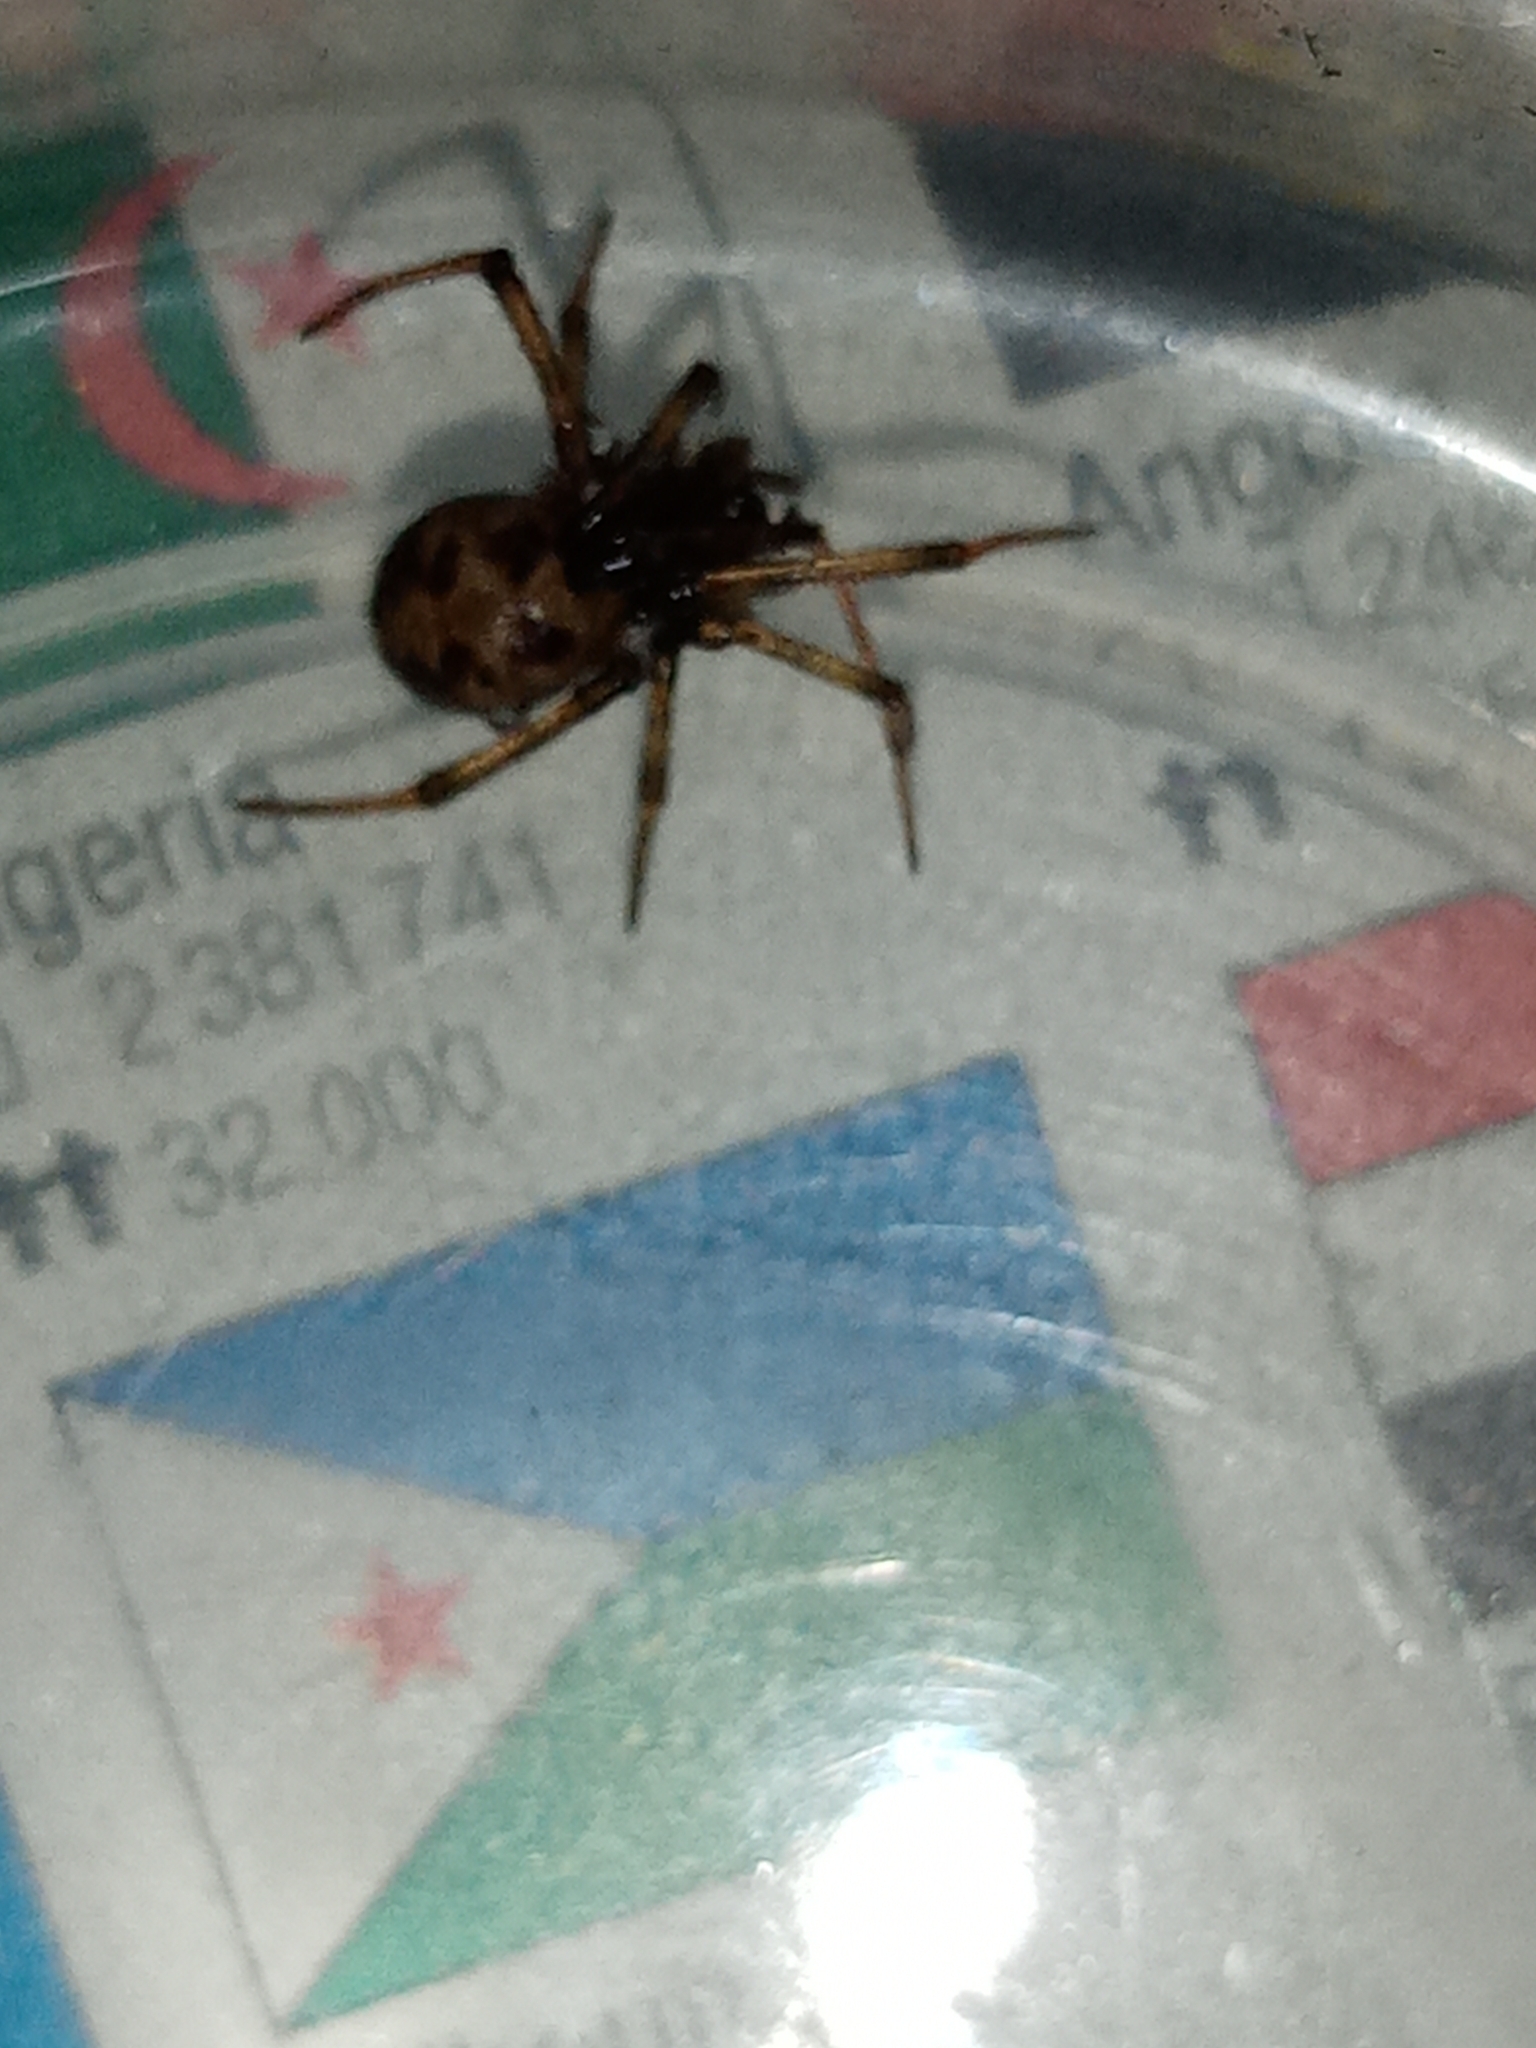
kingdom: Animalia
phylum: Arthropoda
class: Arachnida
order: Araneae
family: Theridiidae
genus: Steatoda
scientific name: Steatoda triangulosa
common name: Triangulate bud spider
